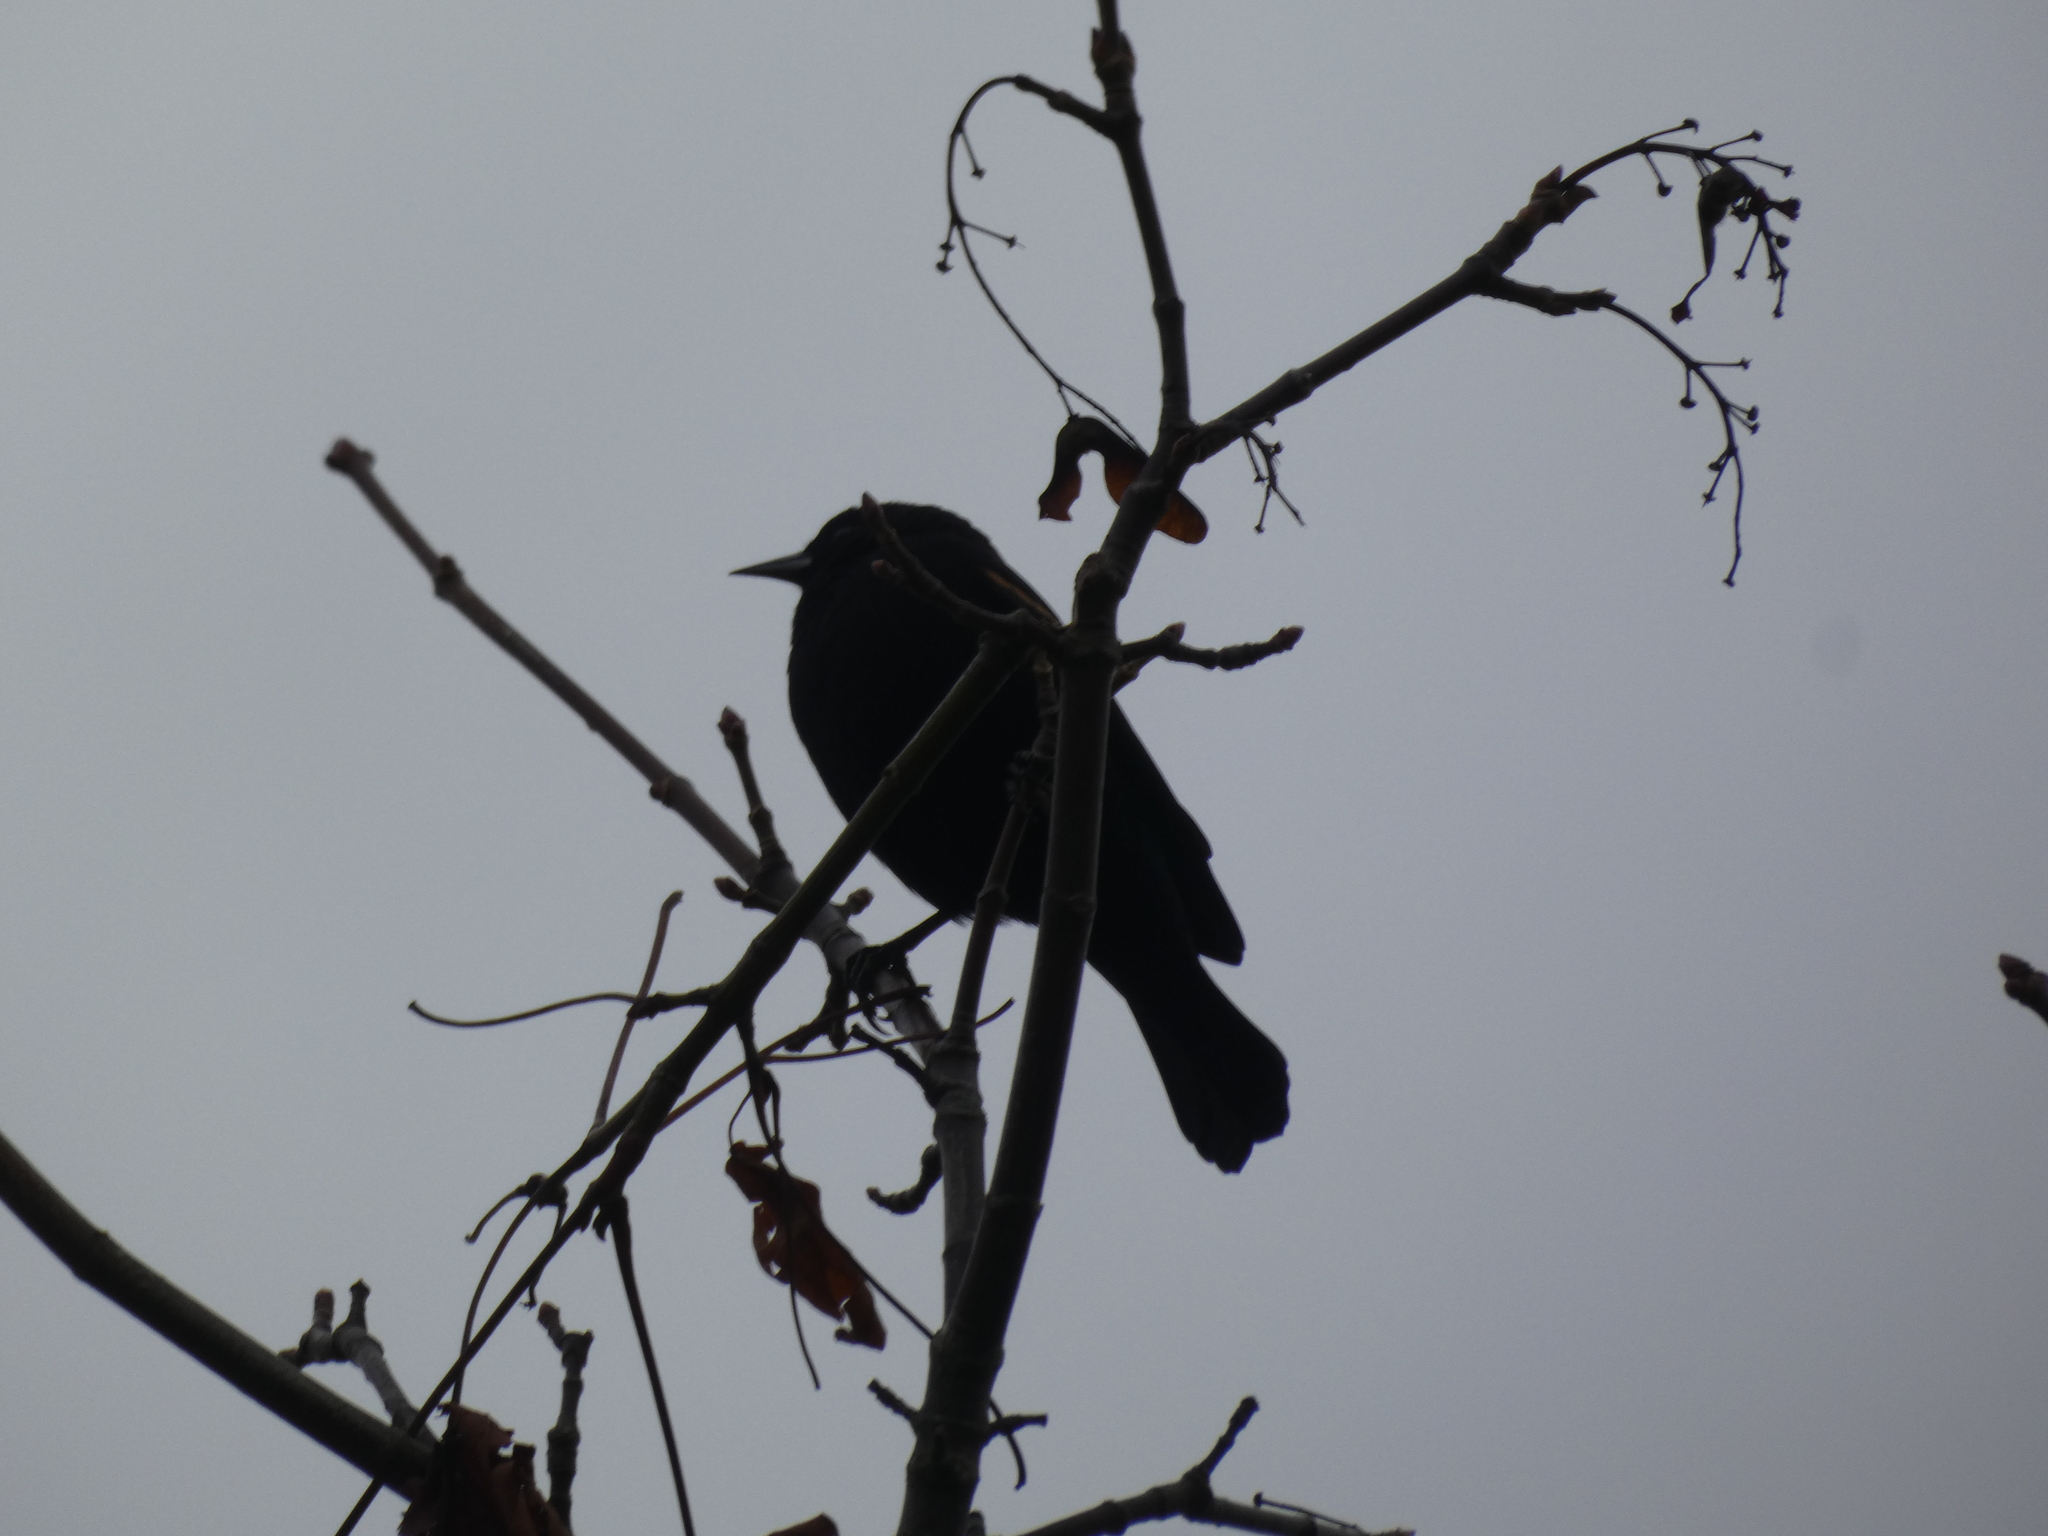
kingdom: Animalia
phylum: Chordata
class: Aves
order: Passeriformes
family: Icteridae
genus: Agelaius
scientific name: Agelaius phoeniceus
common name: Red-winged blackbird
